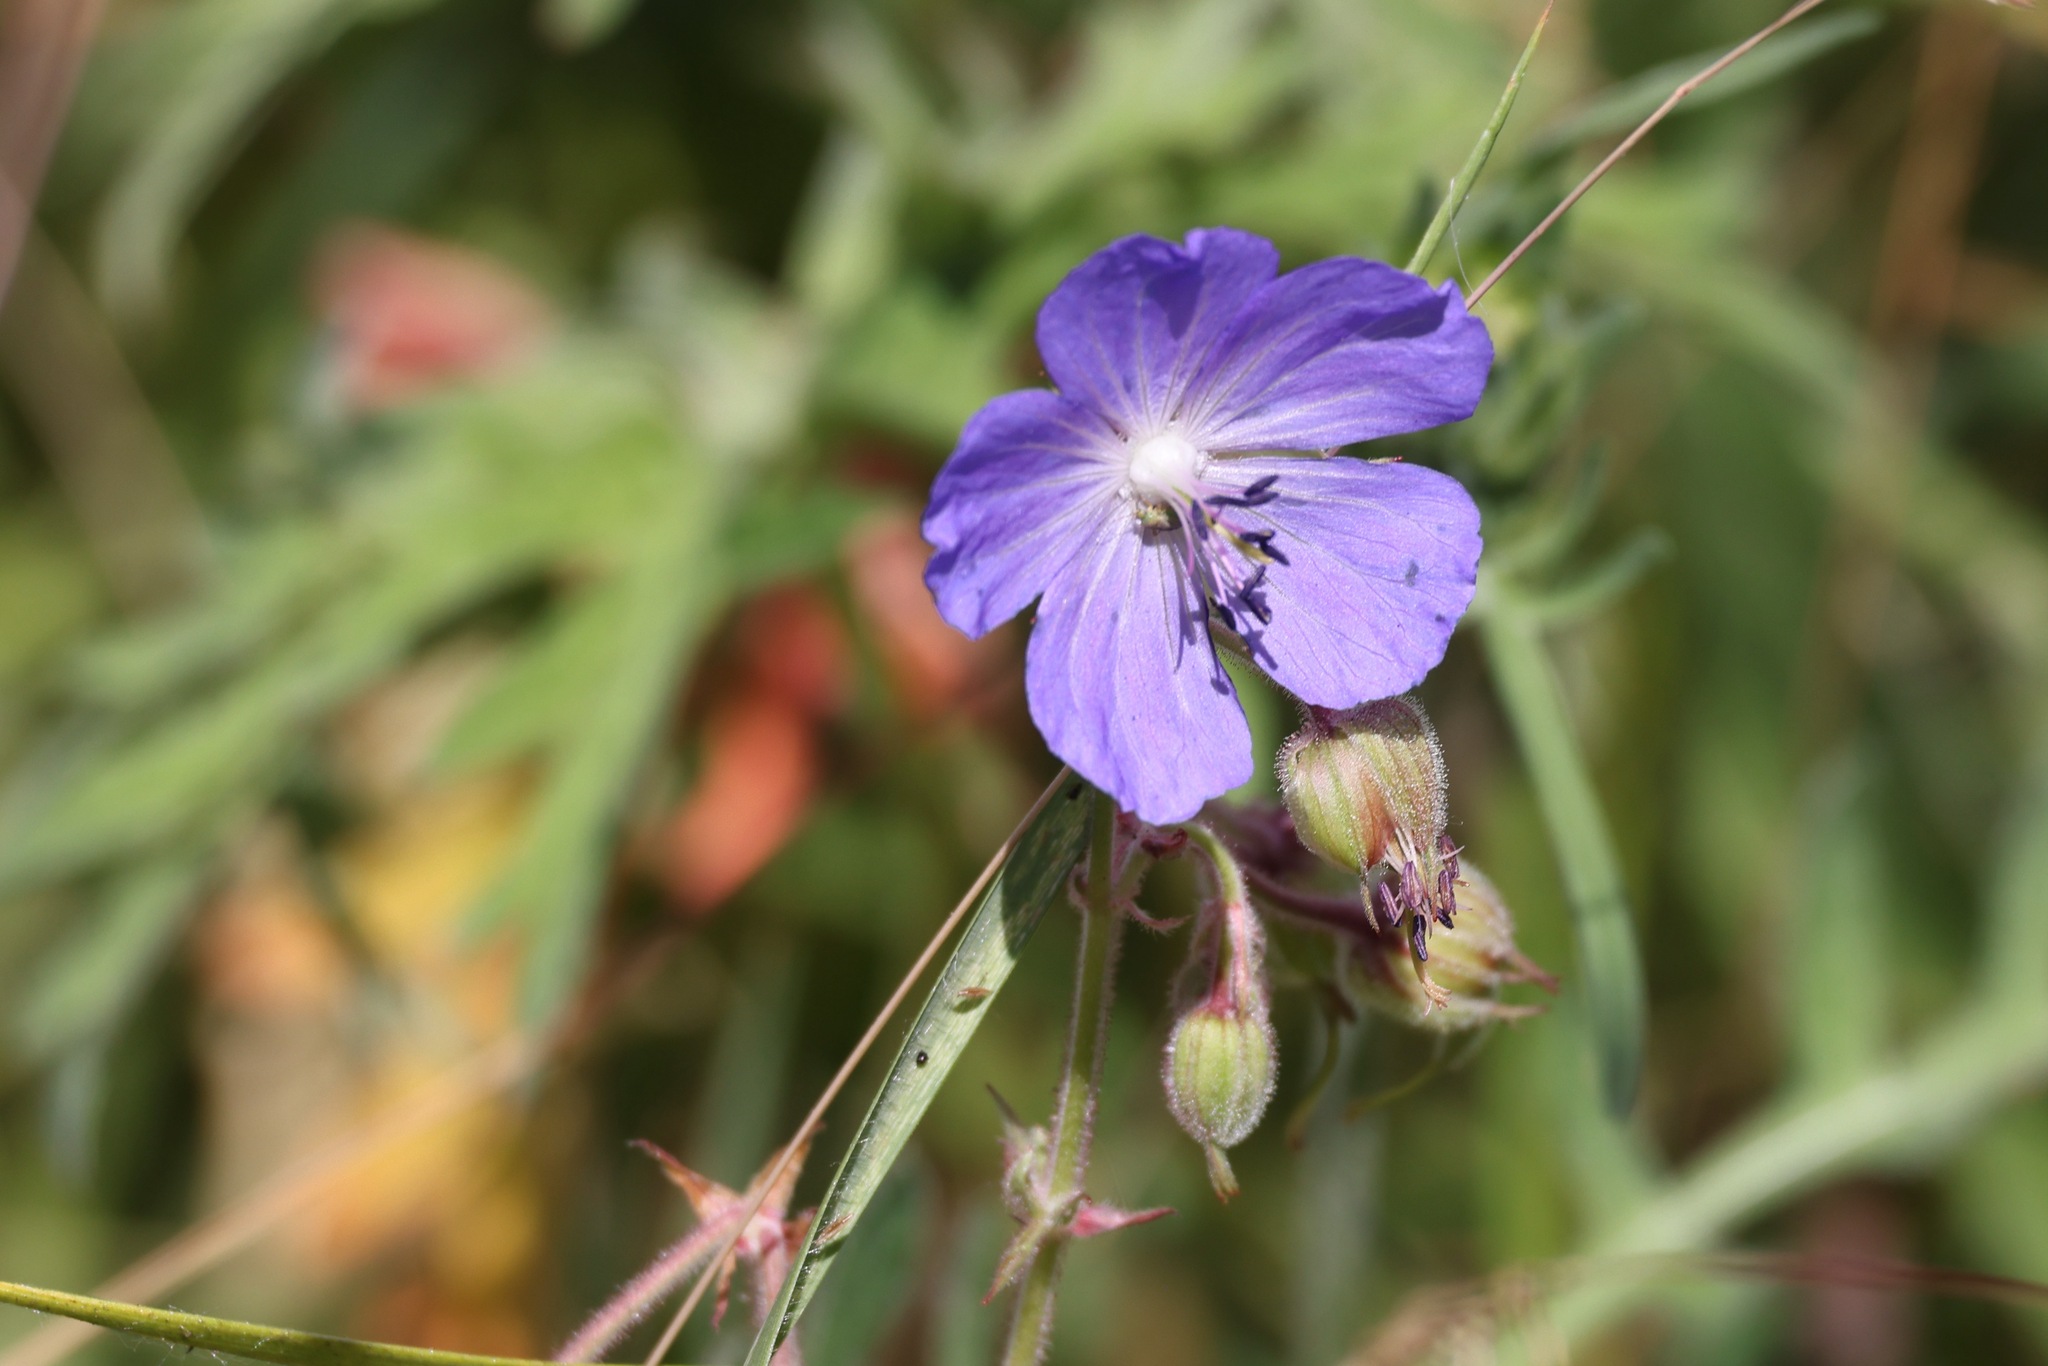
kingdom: Plantae
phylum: Tracheophyta
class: Magnoliopsida
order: Geraniales
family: Geraniaceae
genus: Geranium
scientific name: Geranium pratense
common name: Meadow crane's-bill
